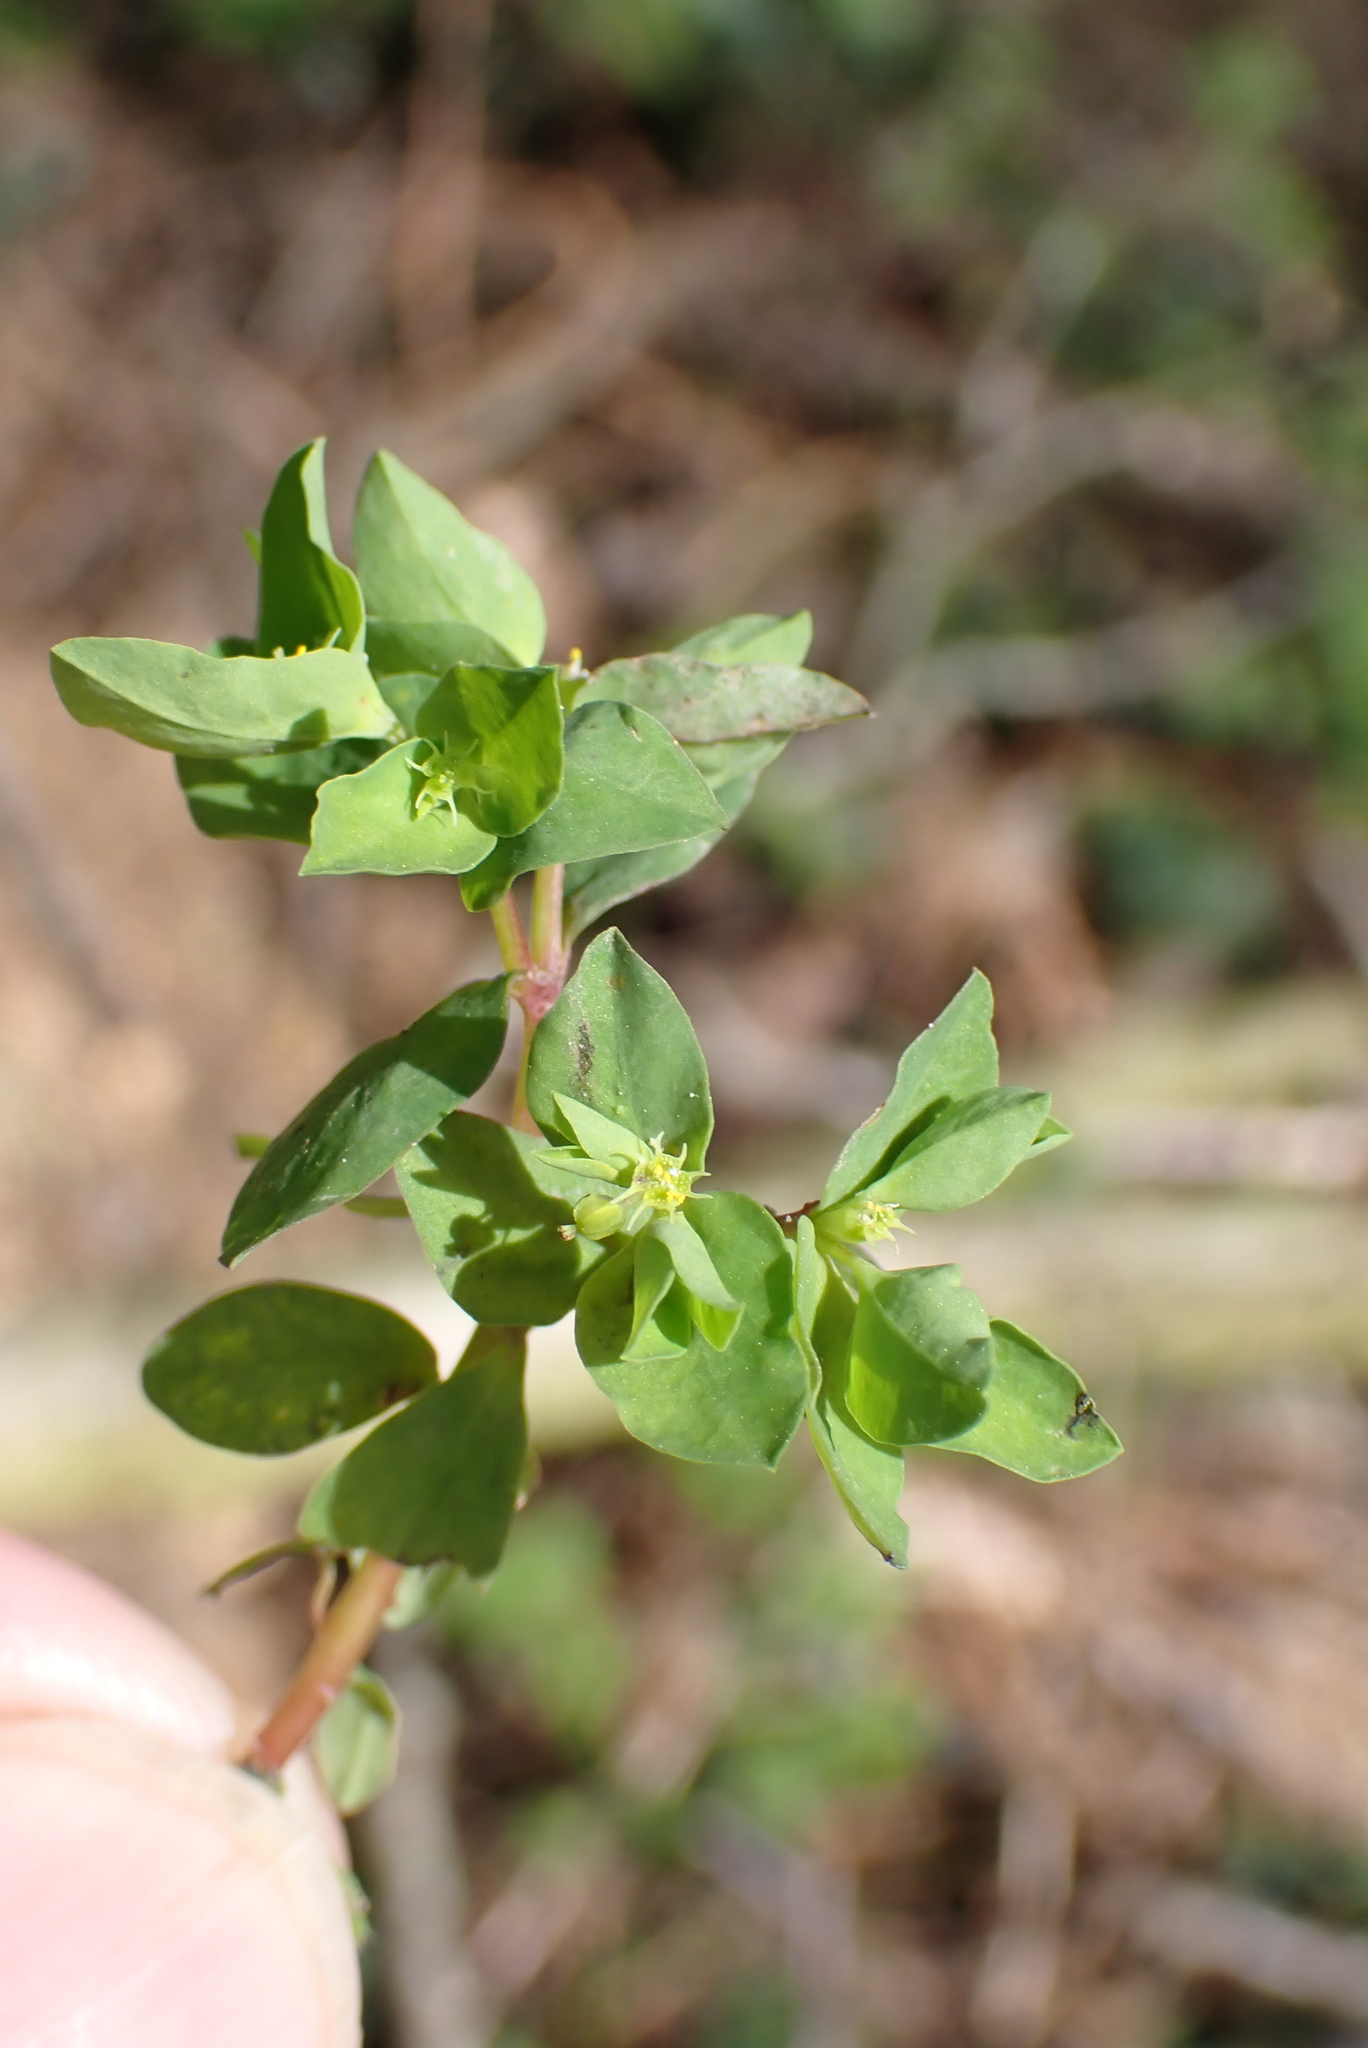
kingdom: Plantae
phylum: Tracheophyta
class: Magnoliopsida
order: Malpighiales
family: Euphorbiaceae
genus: Euphorbia
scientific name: Euphorbia peplus
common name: Petty spurge
